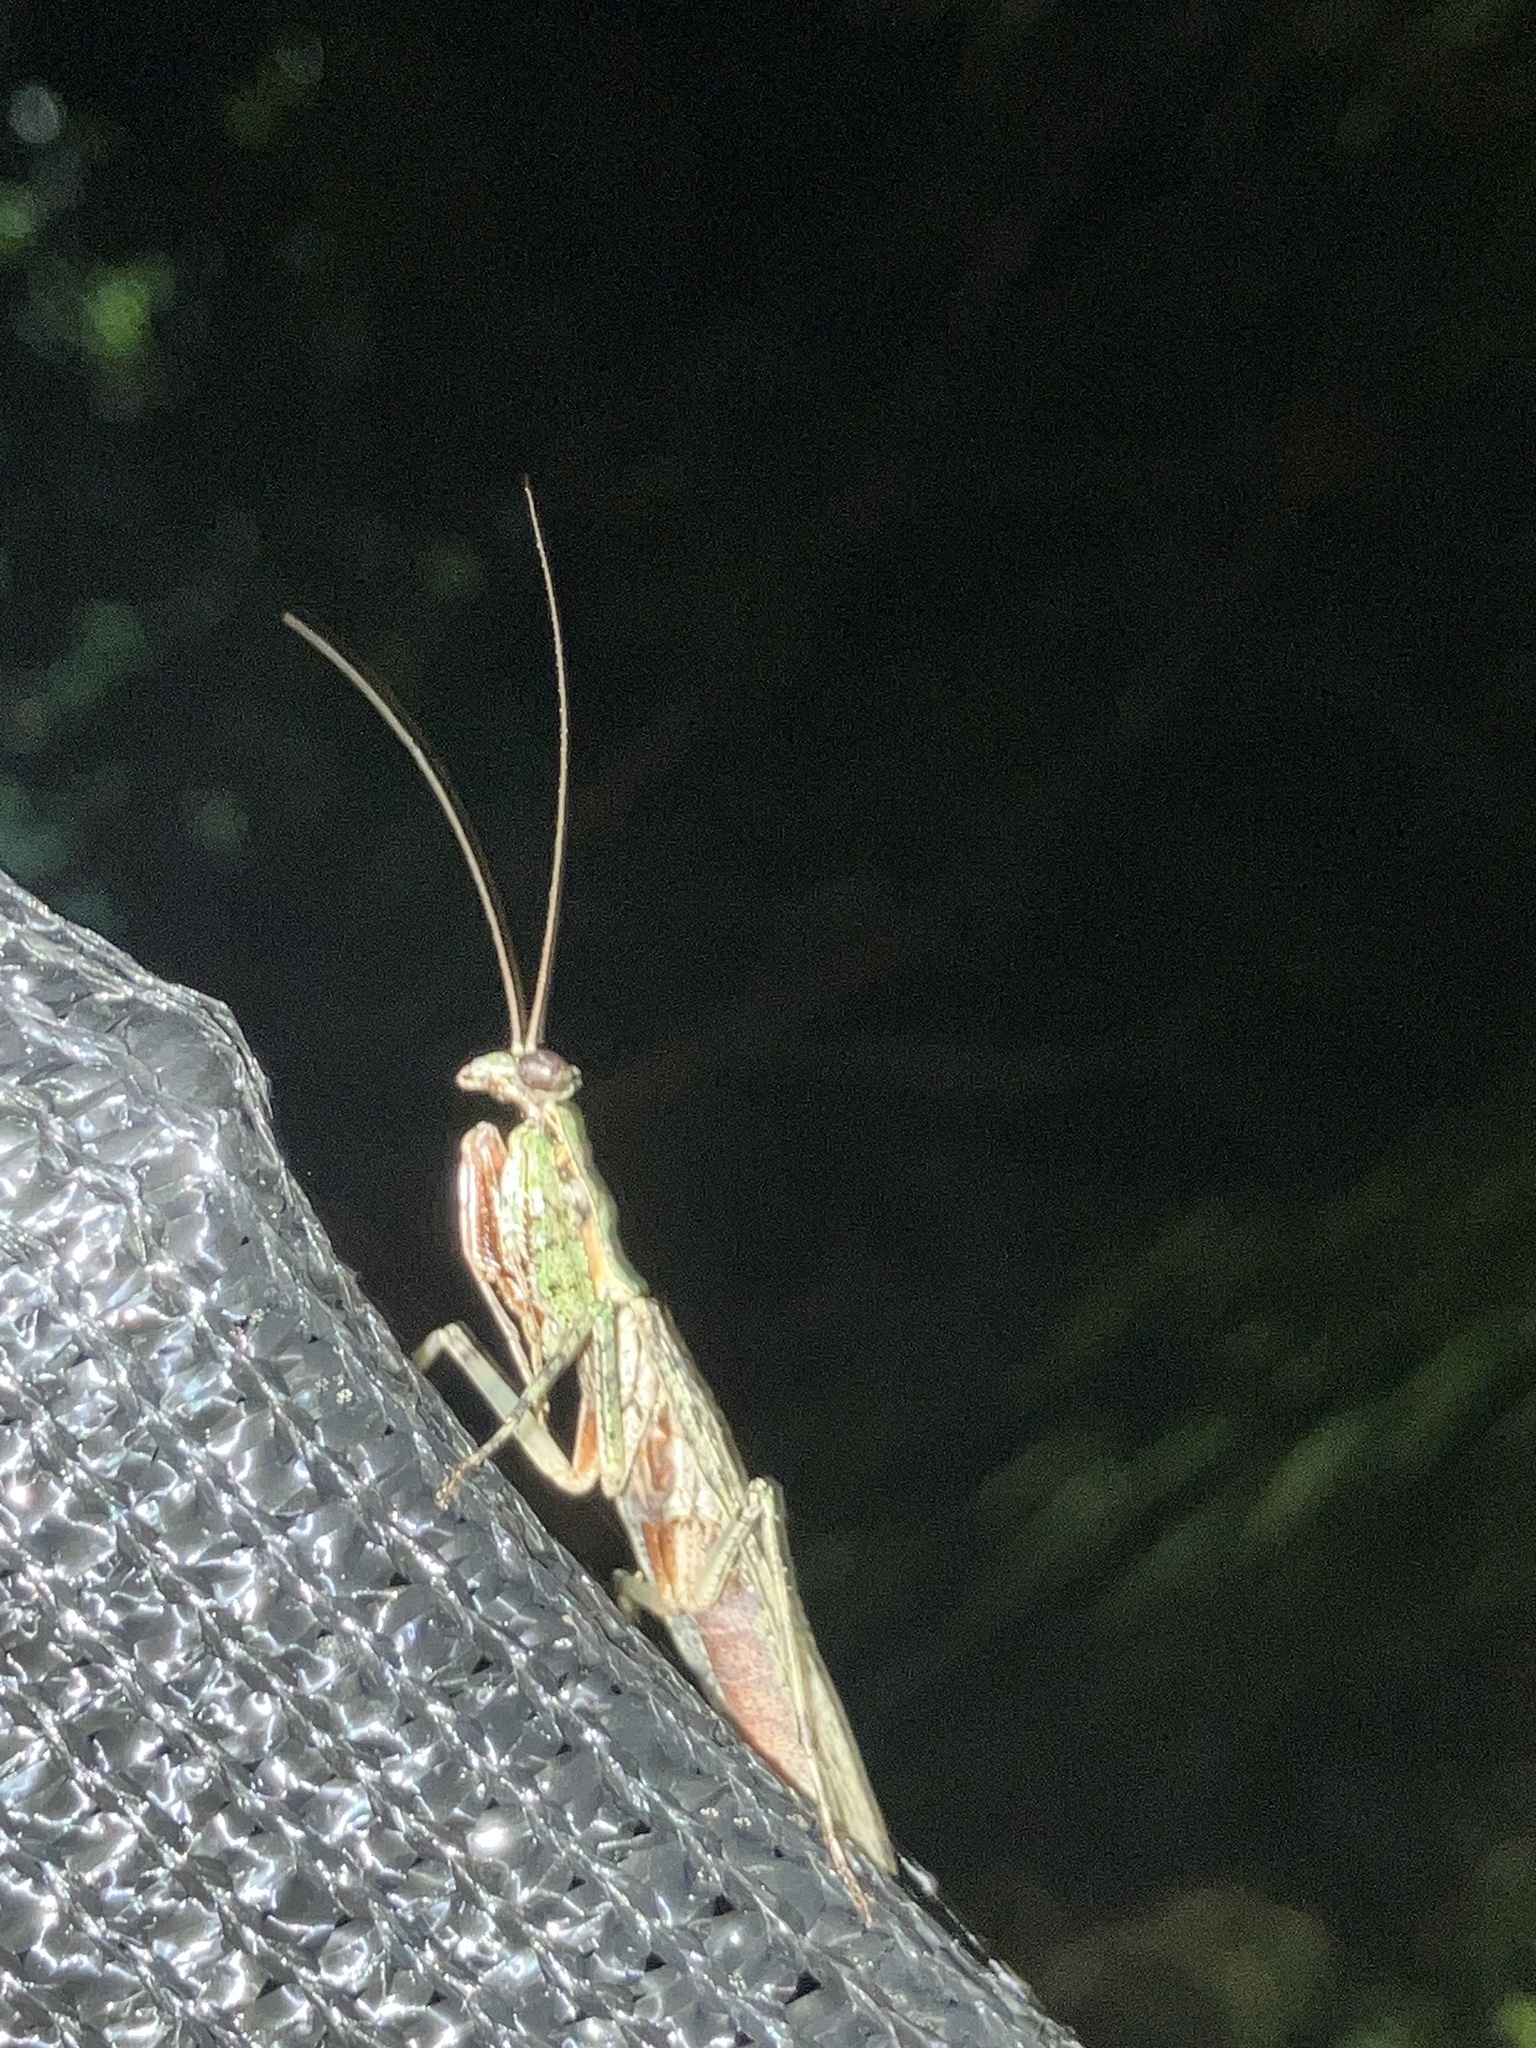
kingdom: Animalia
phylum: Arthropoda
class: Insecta
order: Mantodea
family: Epaphroditidae
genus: Gonatista
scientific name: Gonatista grisea
